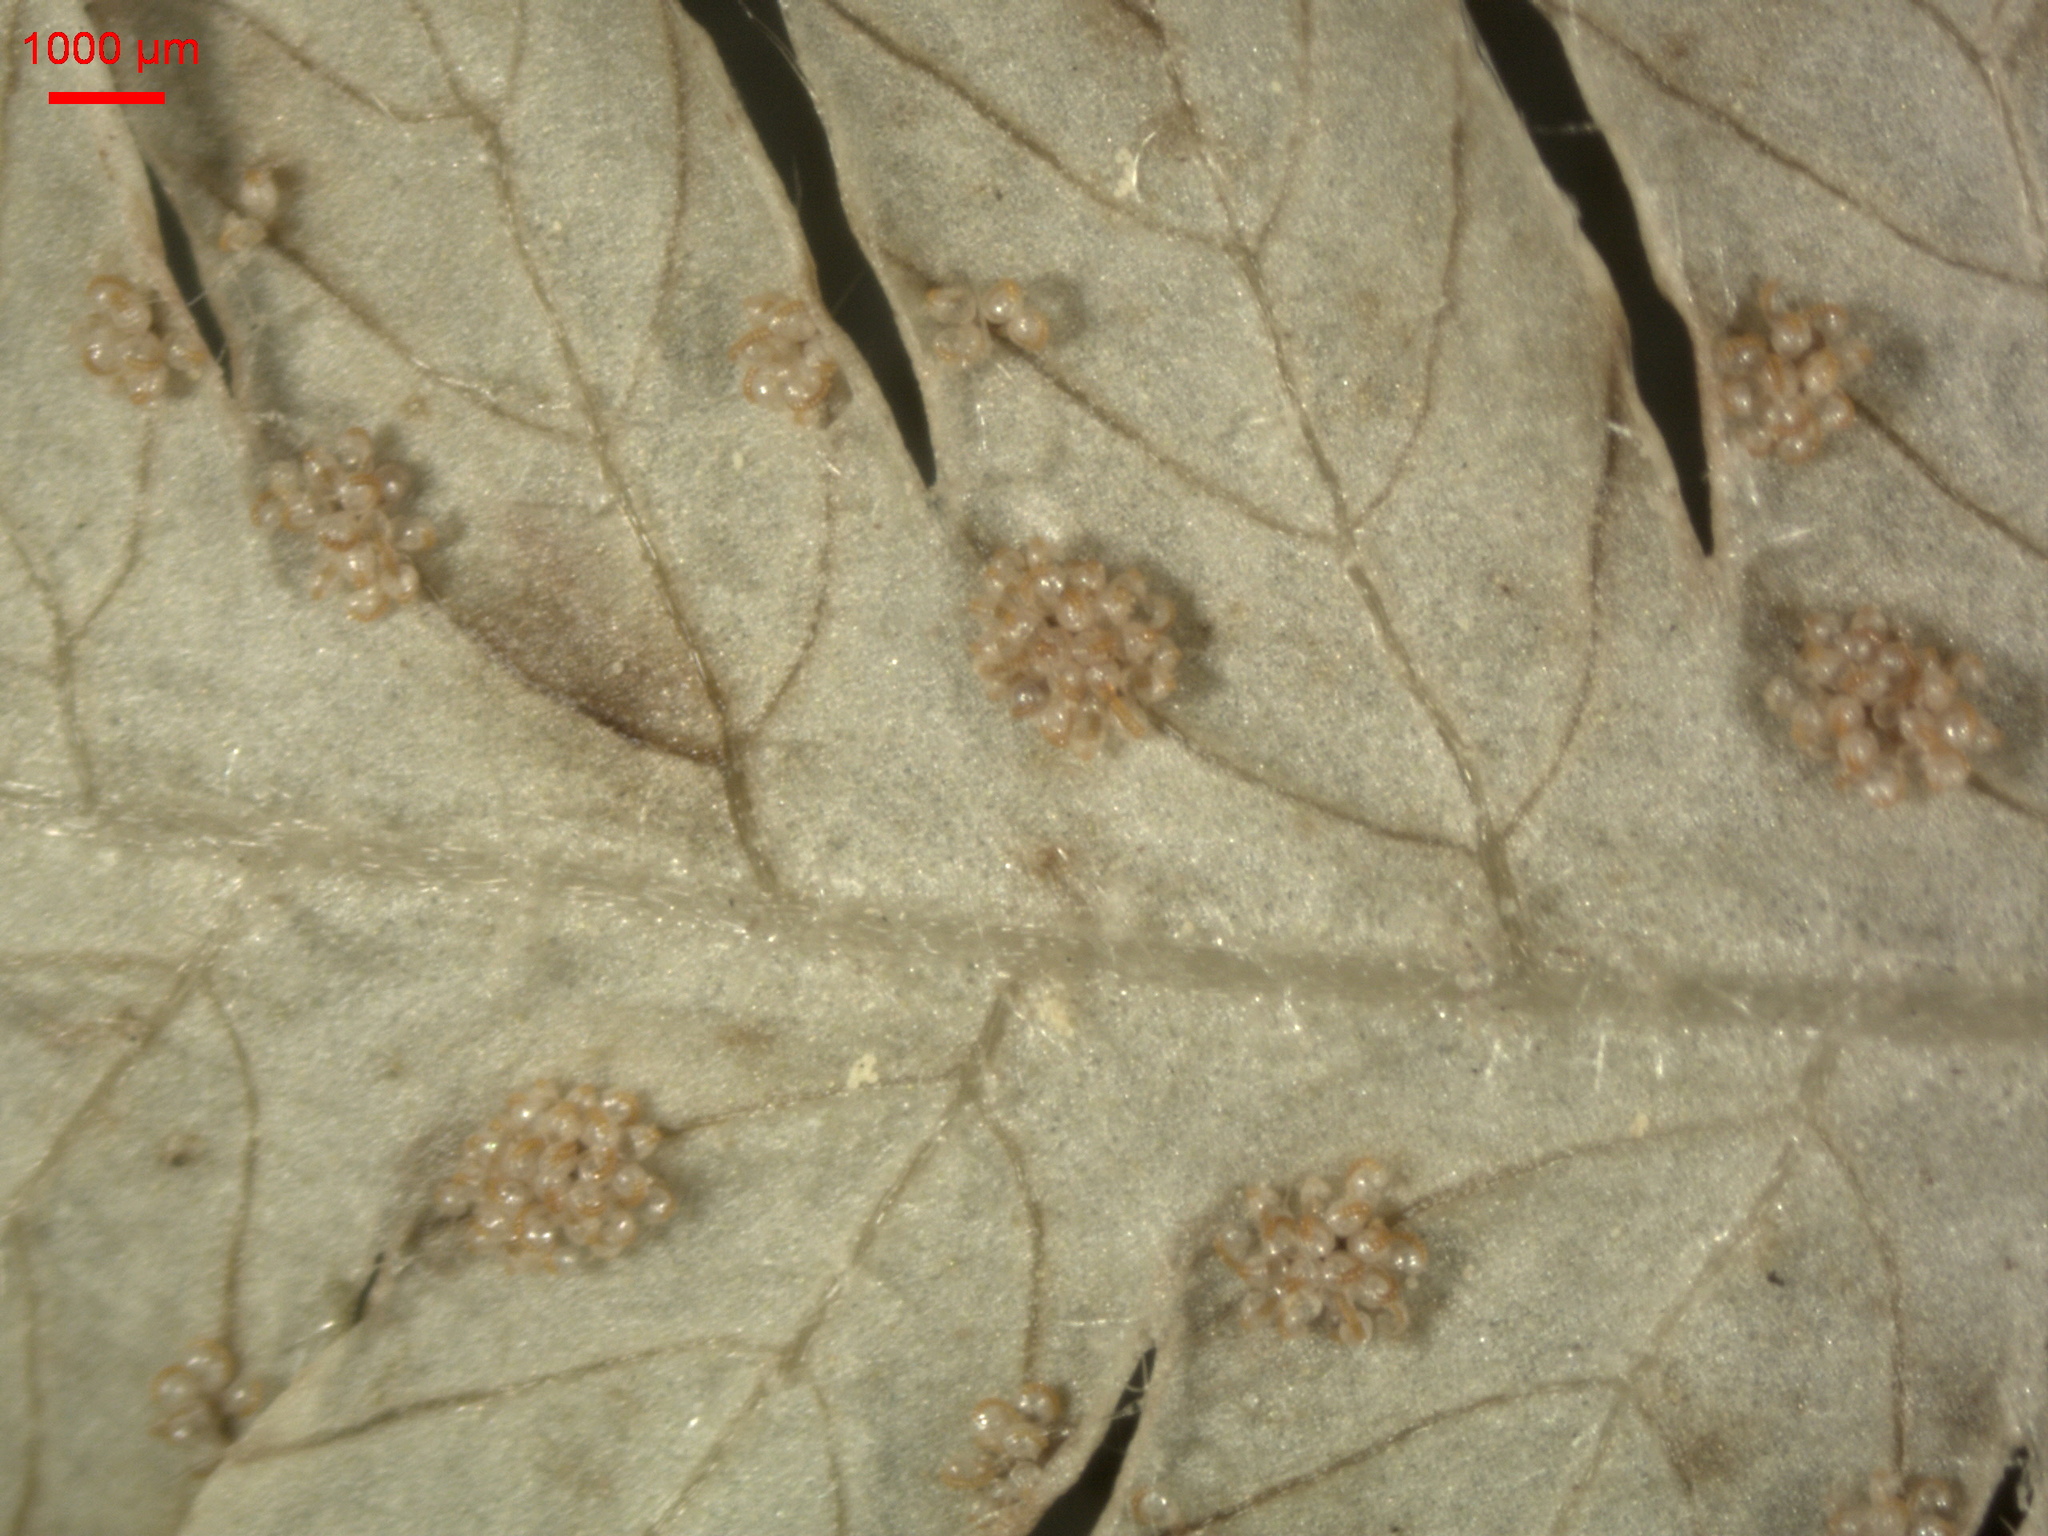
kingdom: Plantae
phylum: Tracheophyta
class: Polypodiopsida
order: Polypodiales
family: Thelypteridaceae
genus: Phegopteris
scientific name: Phegopteris connectilis
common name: Beech fern
